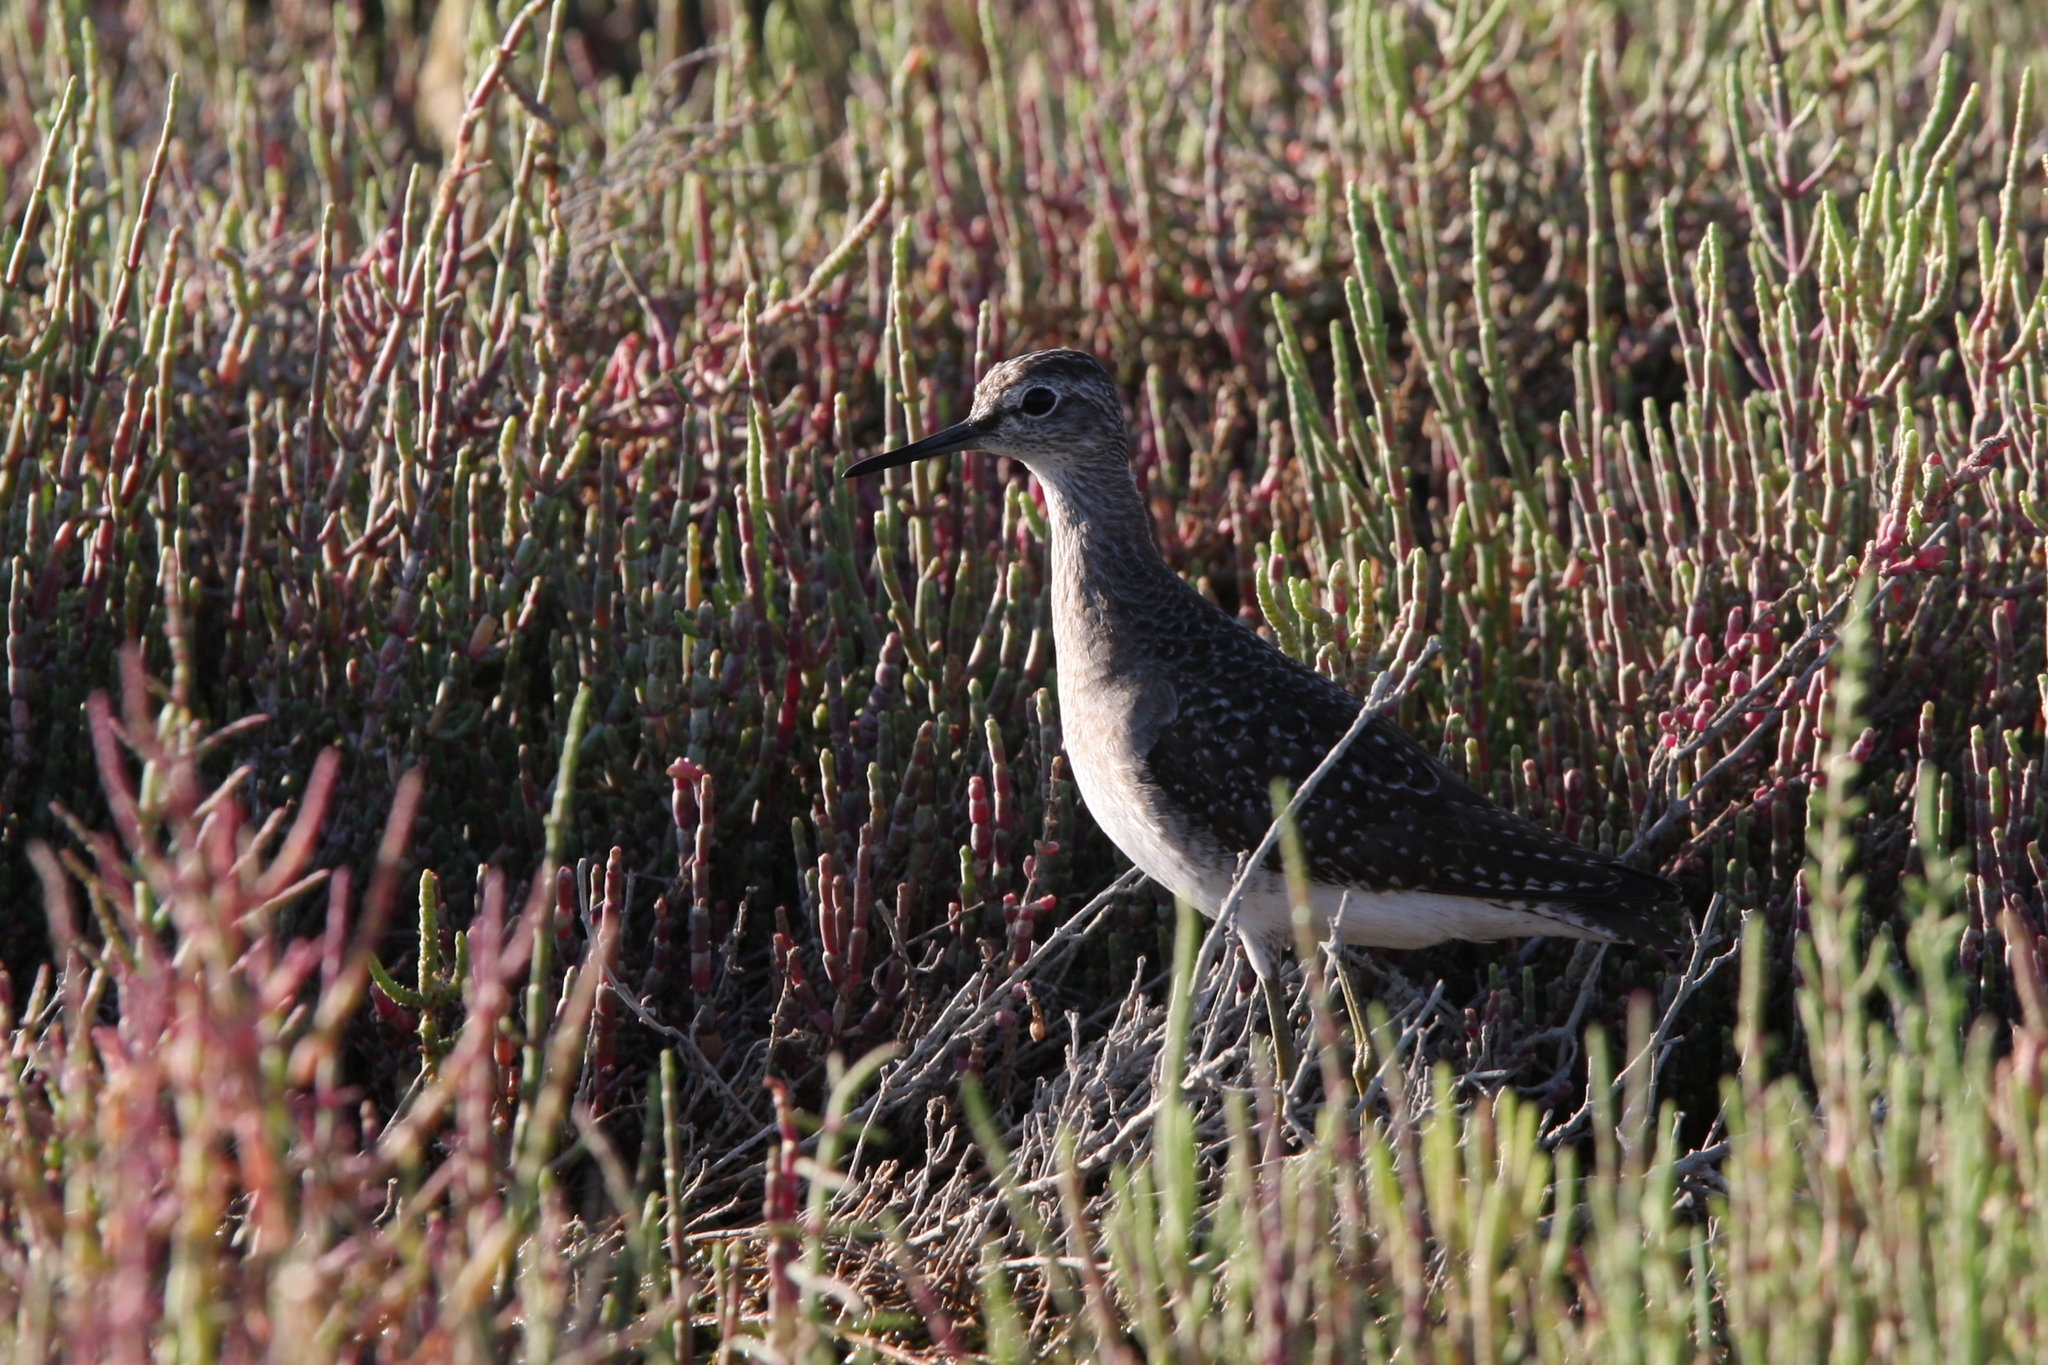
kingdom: Animalia
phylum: Chordata
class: Aves
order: Charadriiformes
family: Scolopacidae
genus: Tringa
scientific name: Tringa glareola
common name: Wood sandpiper
